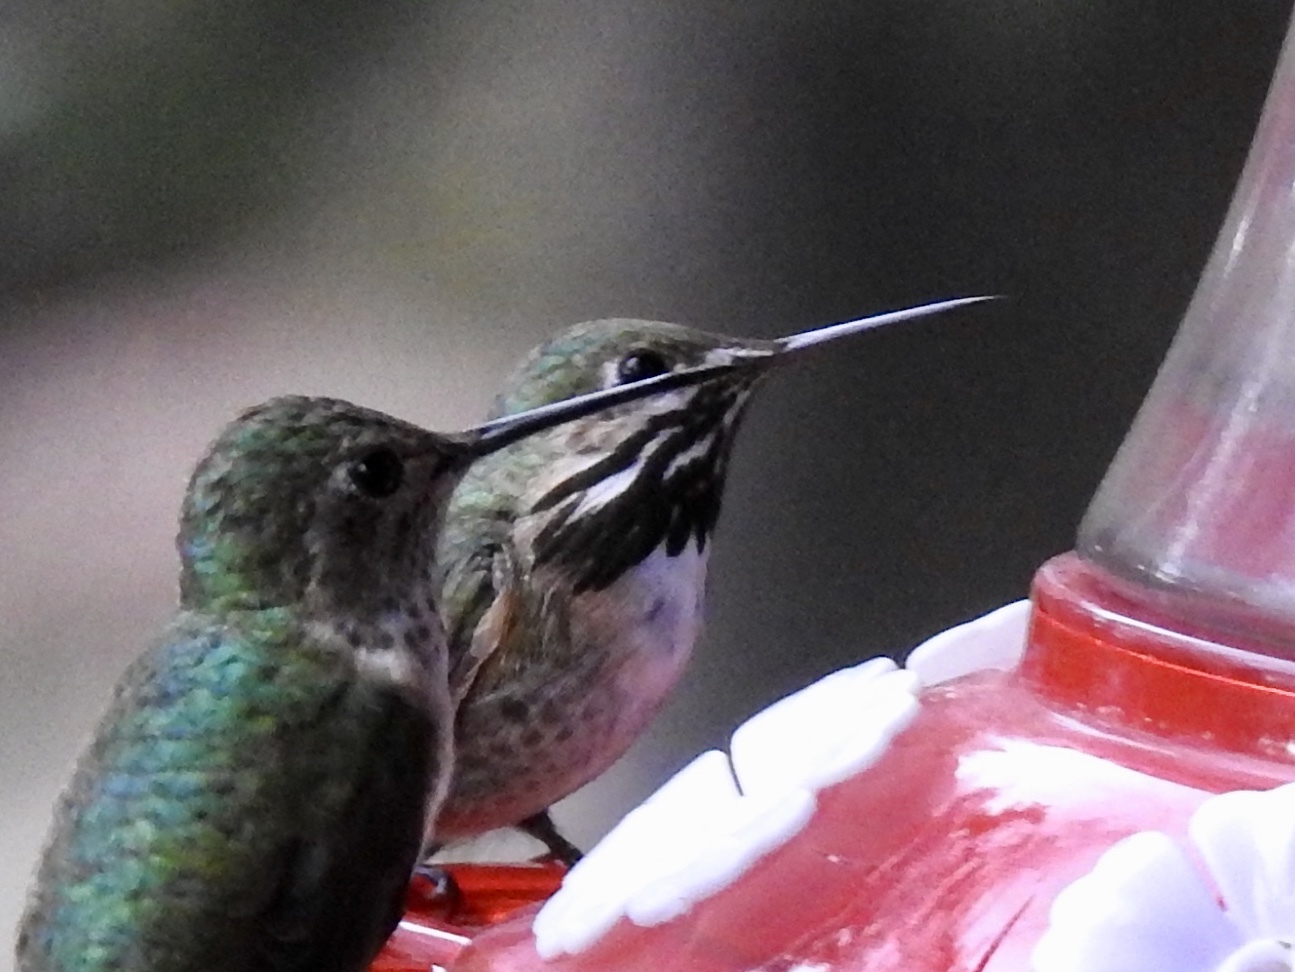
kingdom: Animalia
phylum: Chordata
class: Aves
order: Apodiformes
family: Trochilidae
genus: Selasphorus
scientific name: Selasphorus calliope
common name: Calliope hummingbird
